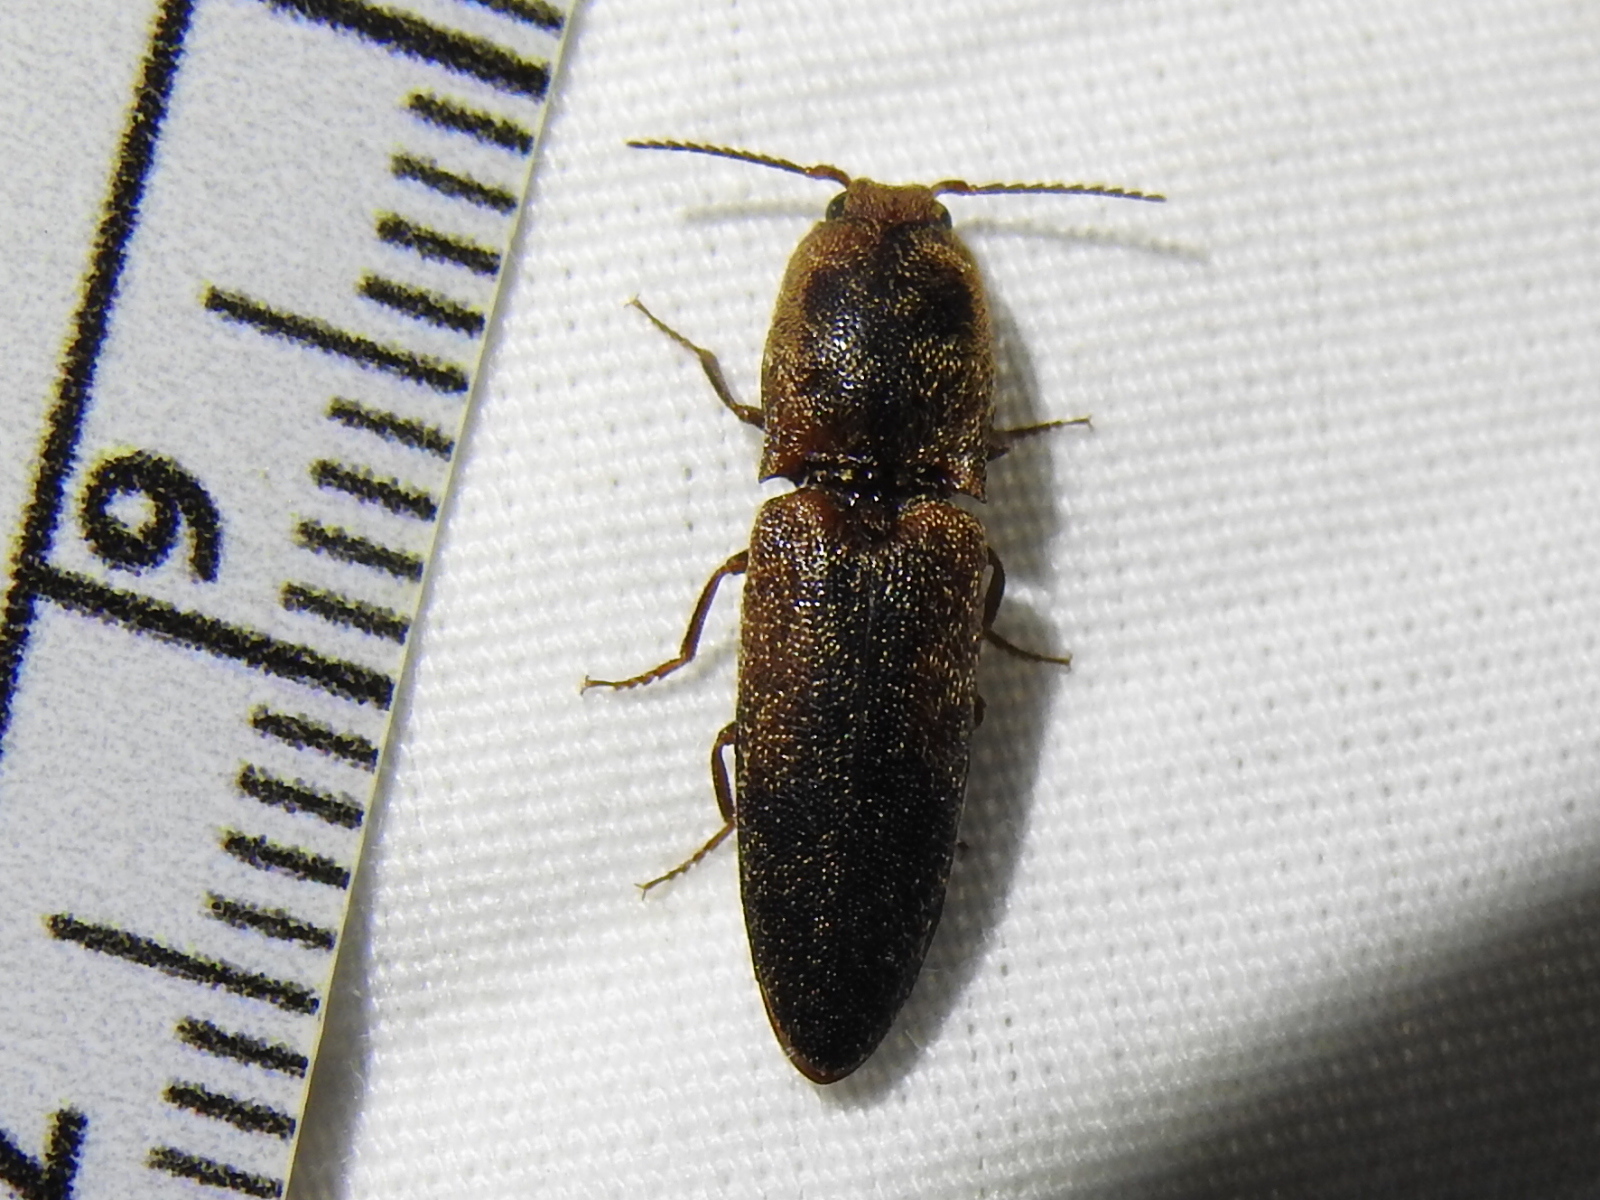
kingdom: Animalia
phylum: Arthropoda
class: Insecta
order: Coleoptera
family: Elateridae
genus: Lacon
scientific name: Lacon
